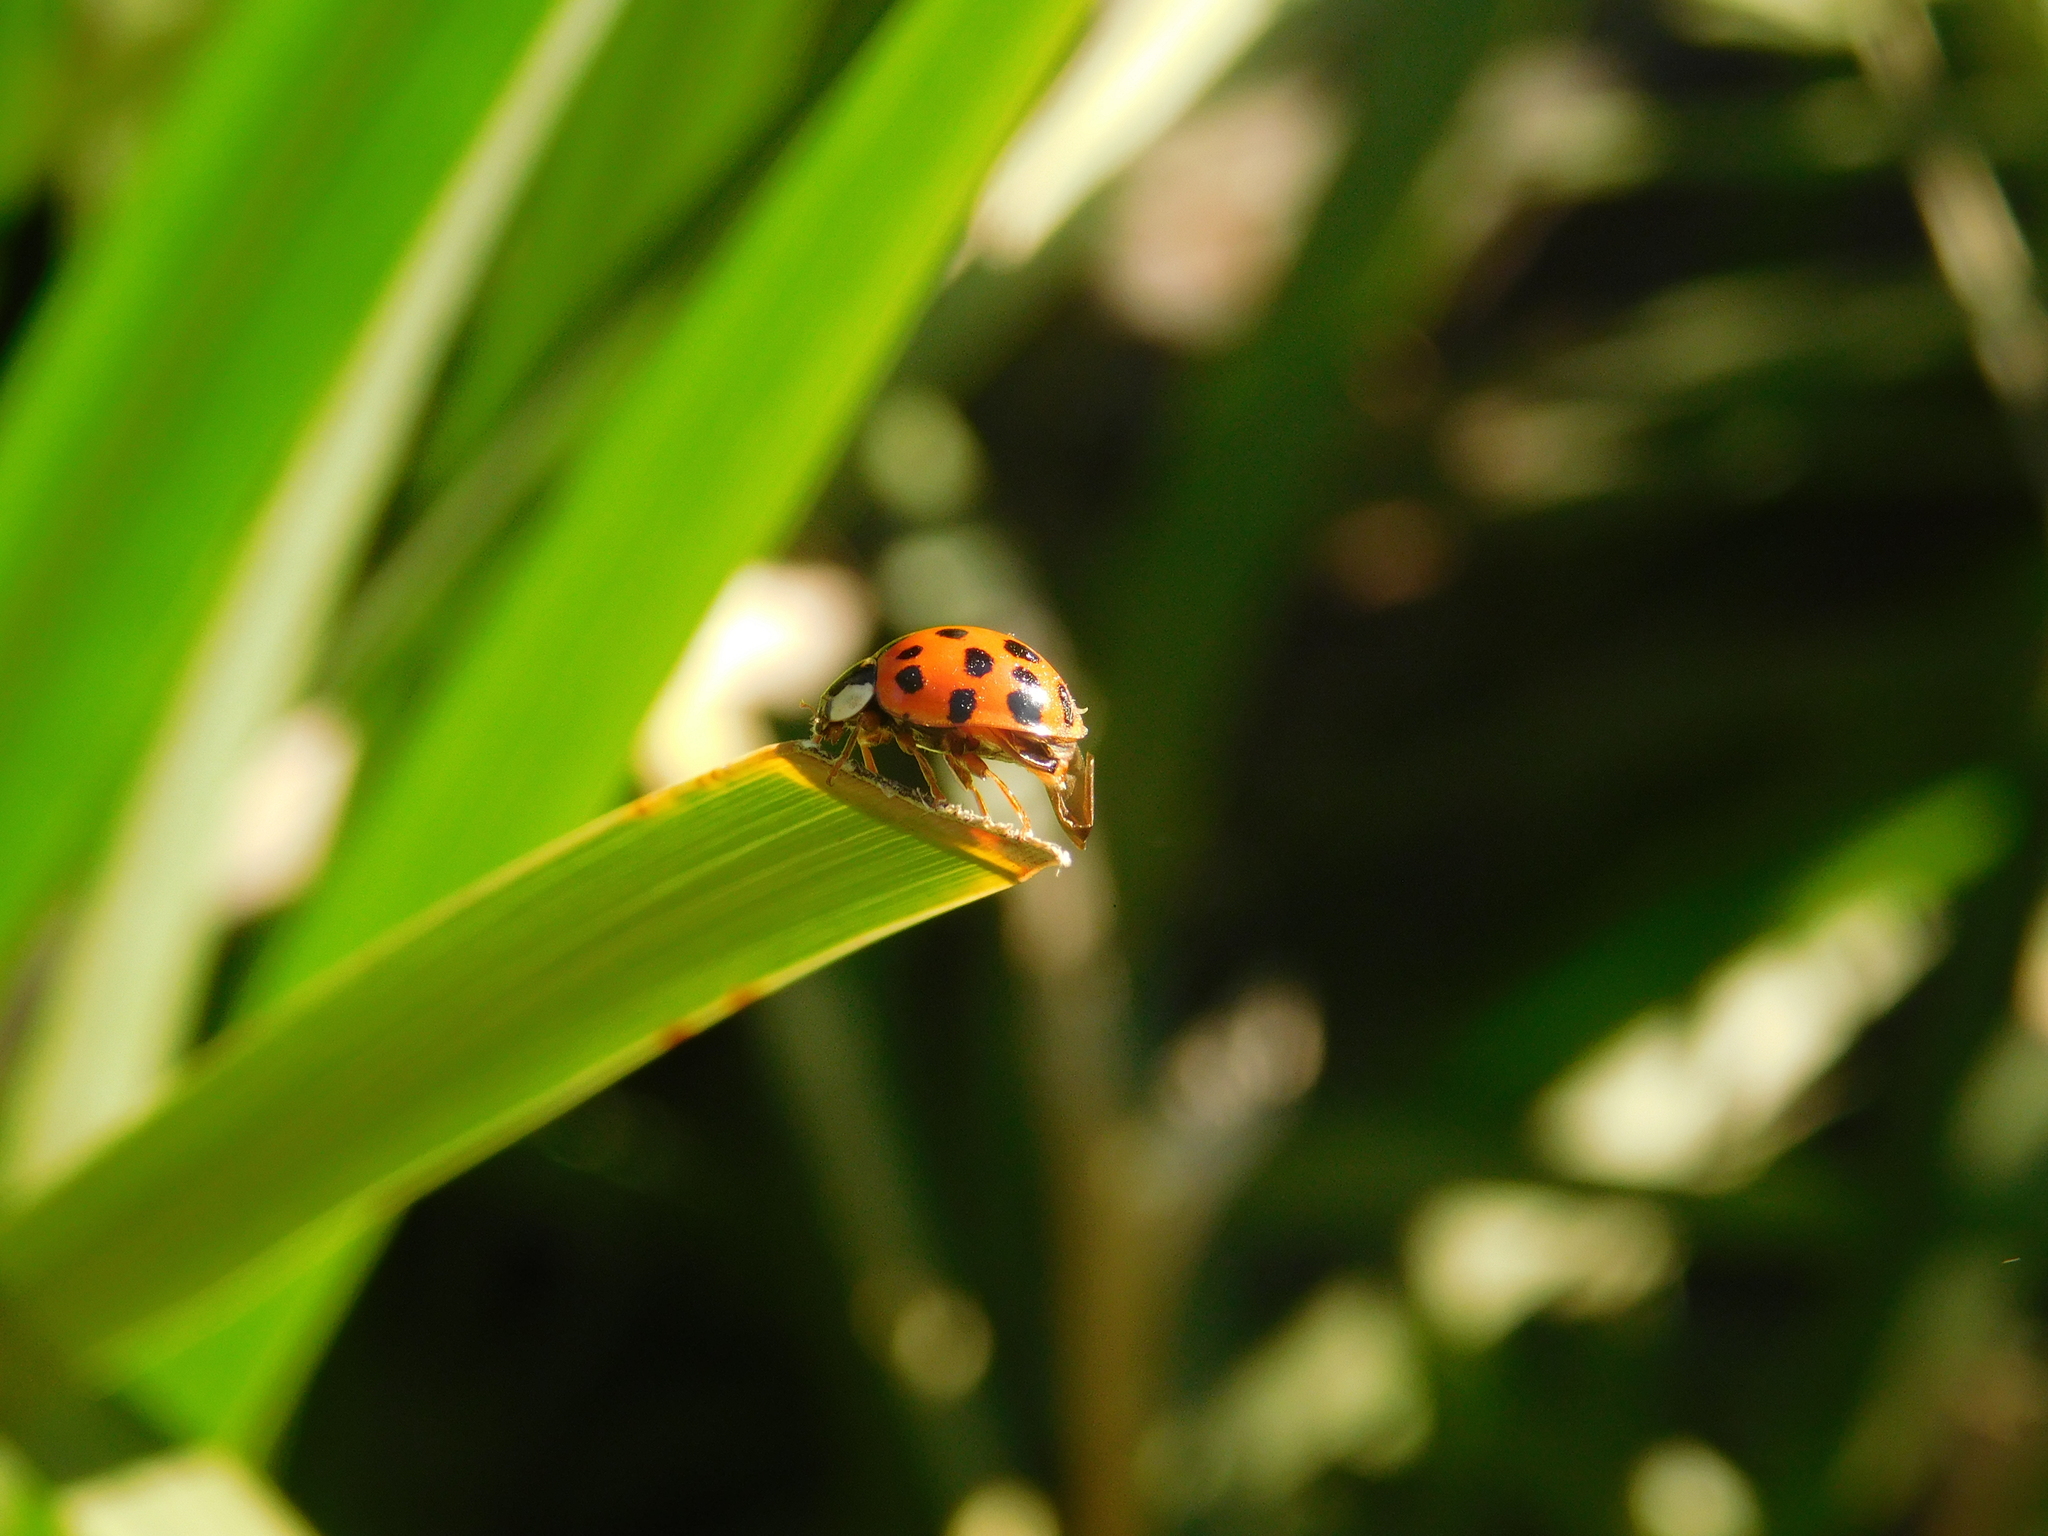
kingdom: Animalia
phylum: Arthropoda
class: Insecta
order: Coleoptera
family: Coccinellidae
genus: Harmonia
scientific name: Harmonia axyridis
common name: Harlequin ladybird
